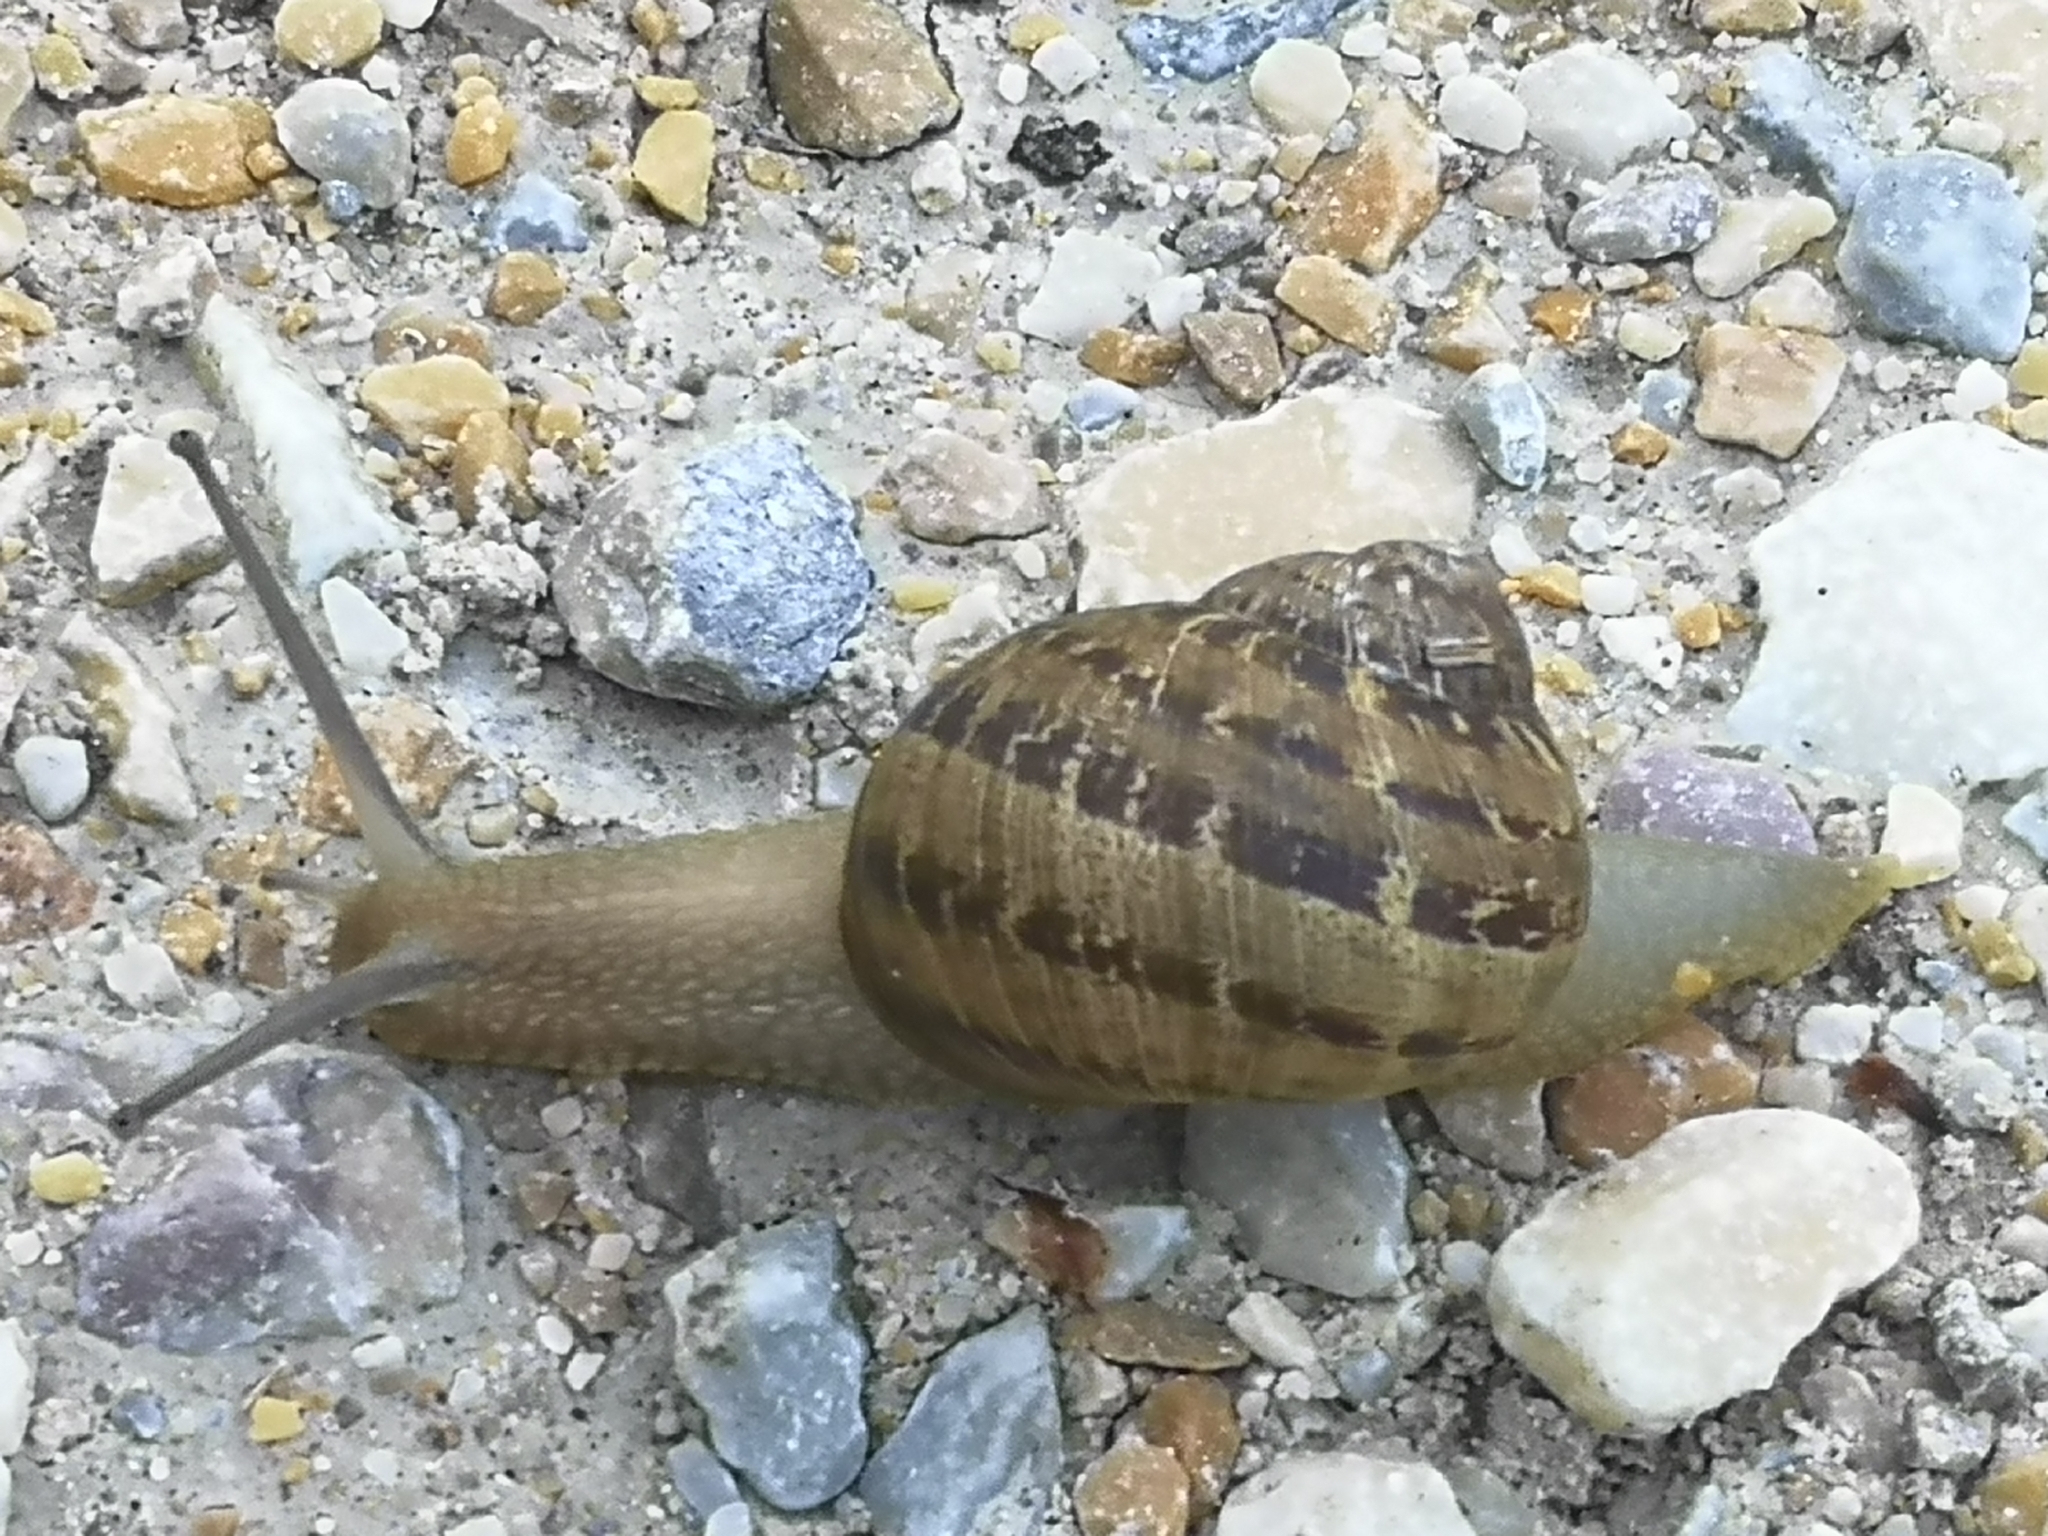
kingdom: Animalia
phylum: Mollusca
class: Gastropoda
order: Stylommatophora
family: Helicidae
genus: Cornu
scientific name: Cornu aspersum
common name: Brown garden snail
